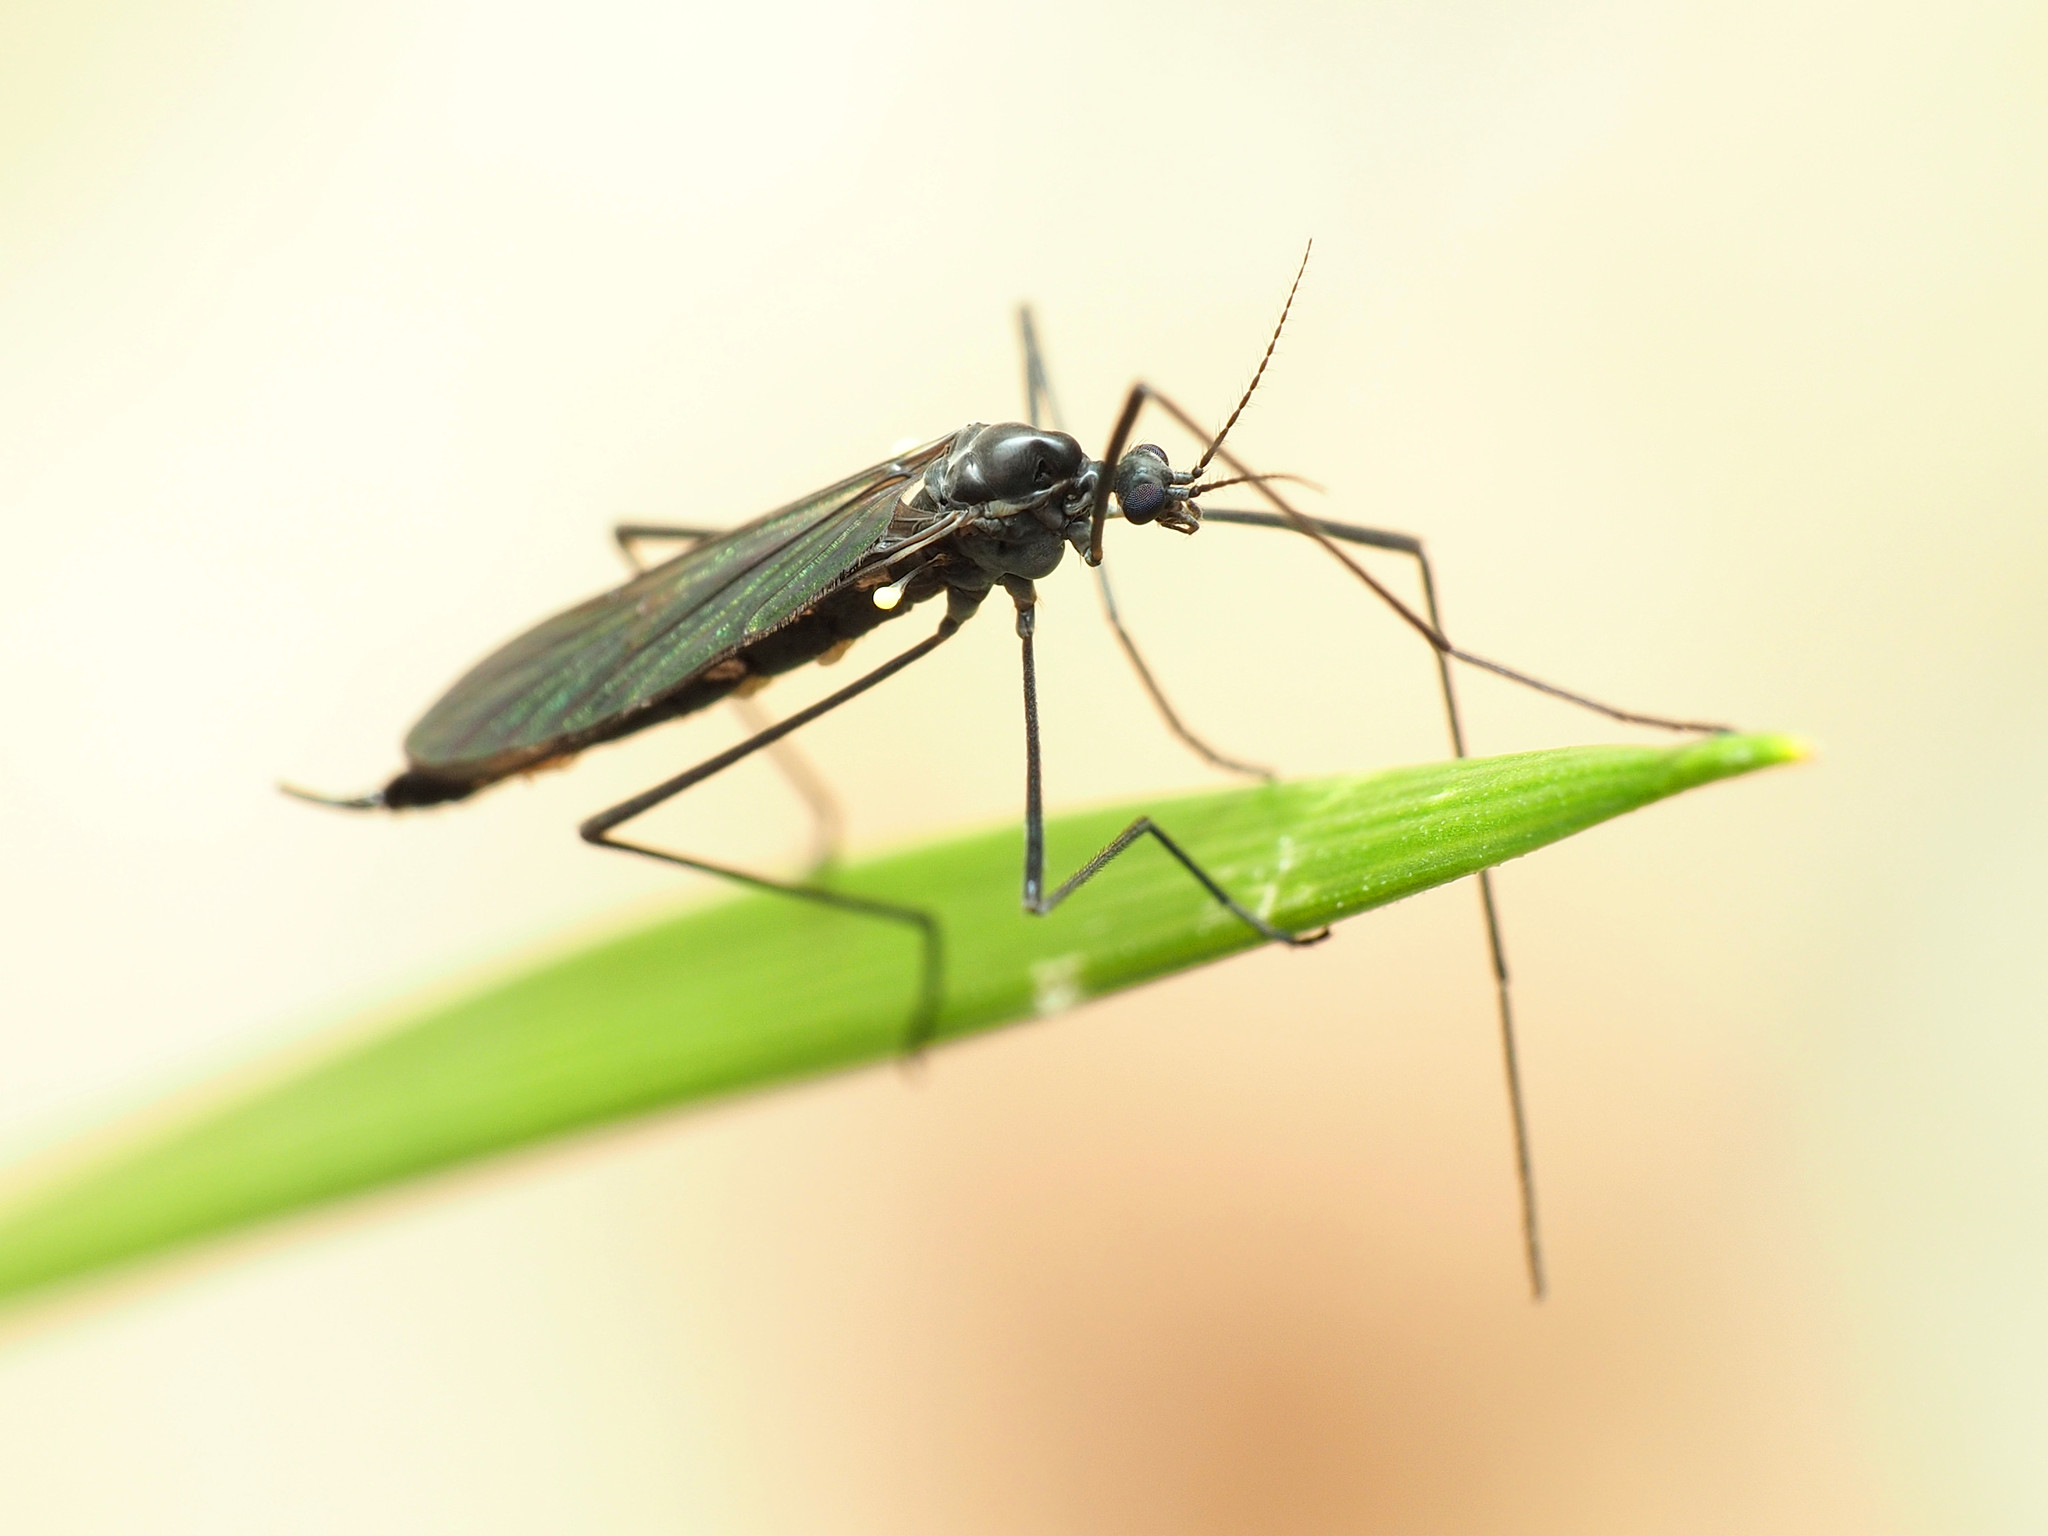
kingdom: Animalia
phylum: Arthropoda
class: Insecta
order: Diptera
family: Limoniidae
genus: Gnophomyia
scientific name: Gnophomyia tristissima
